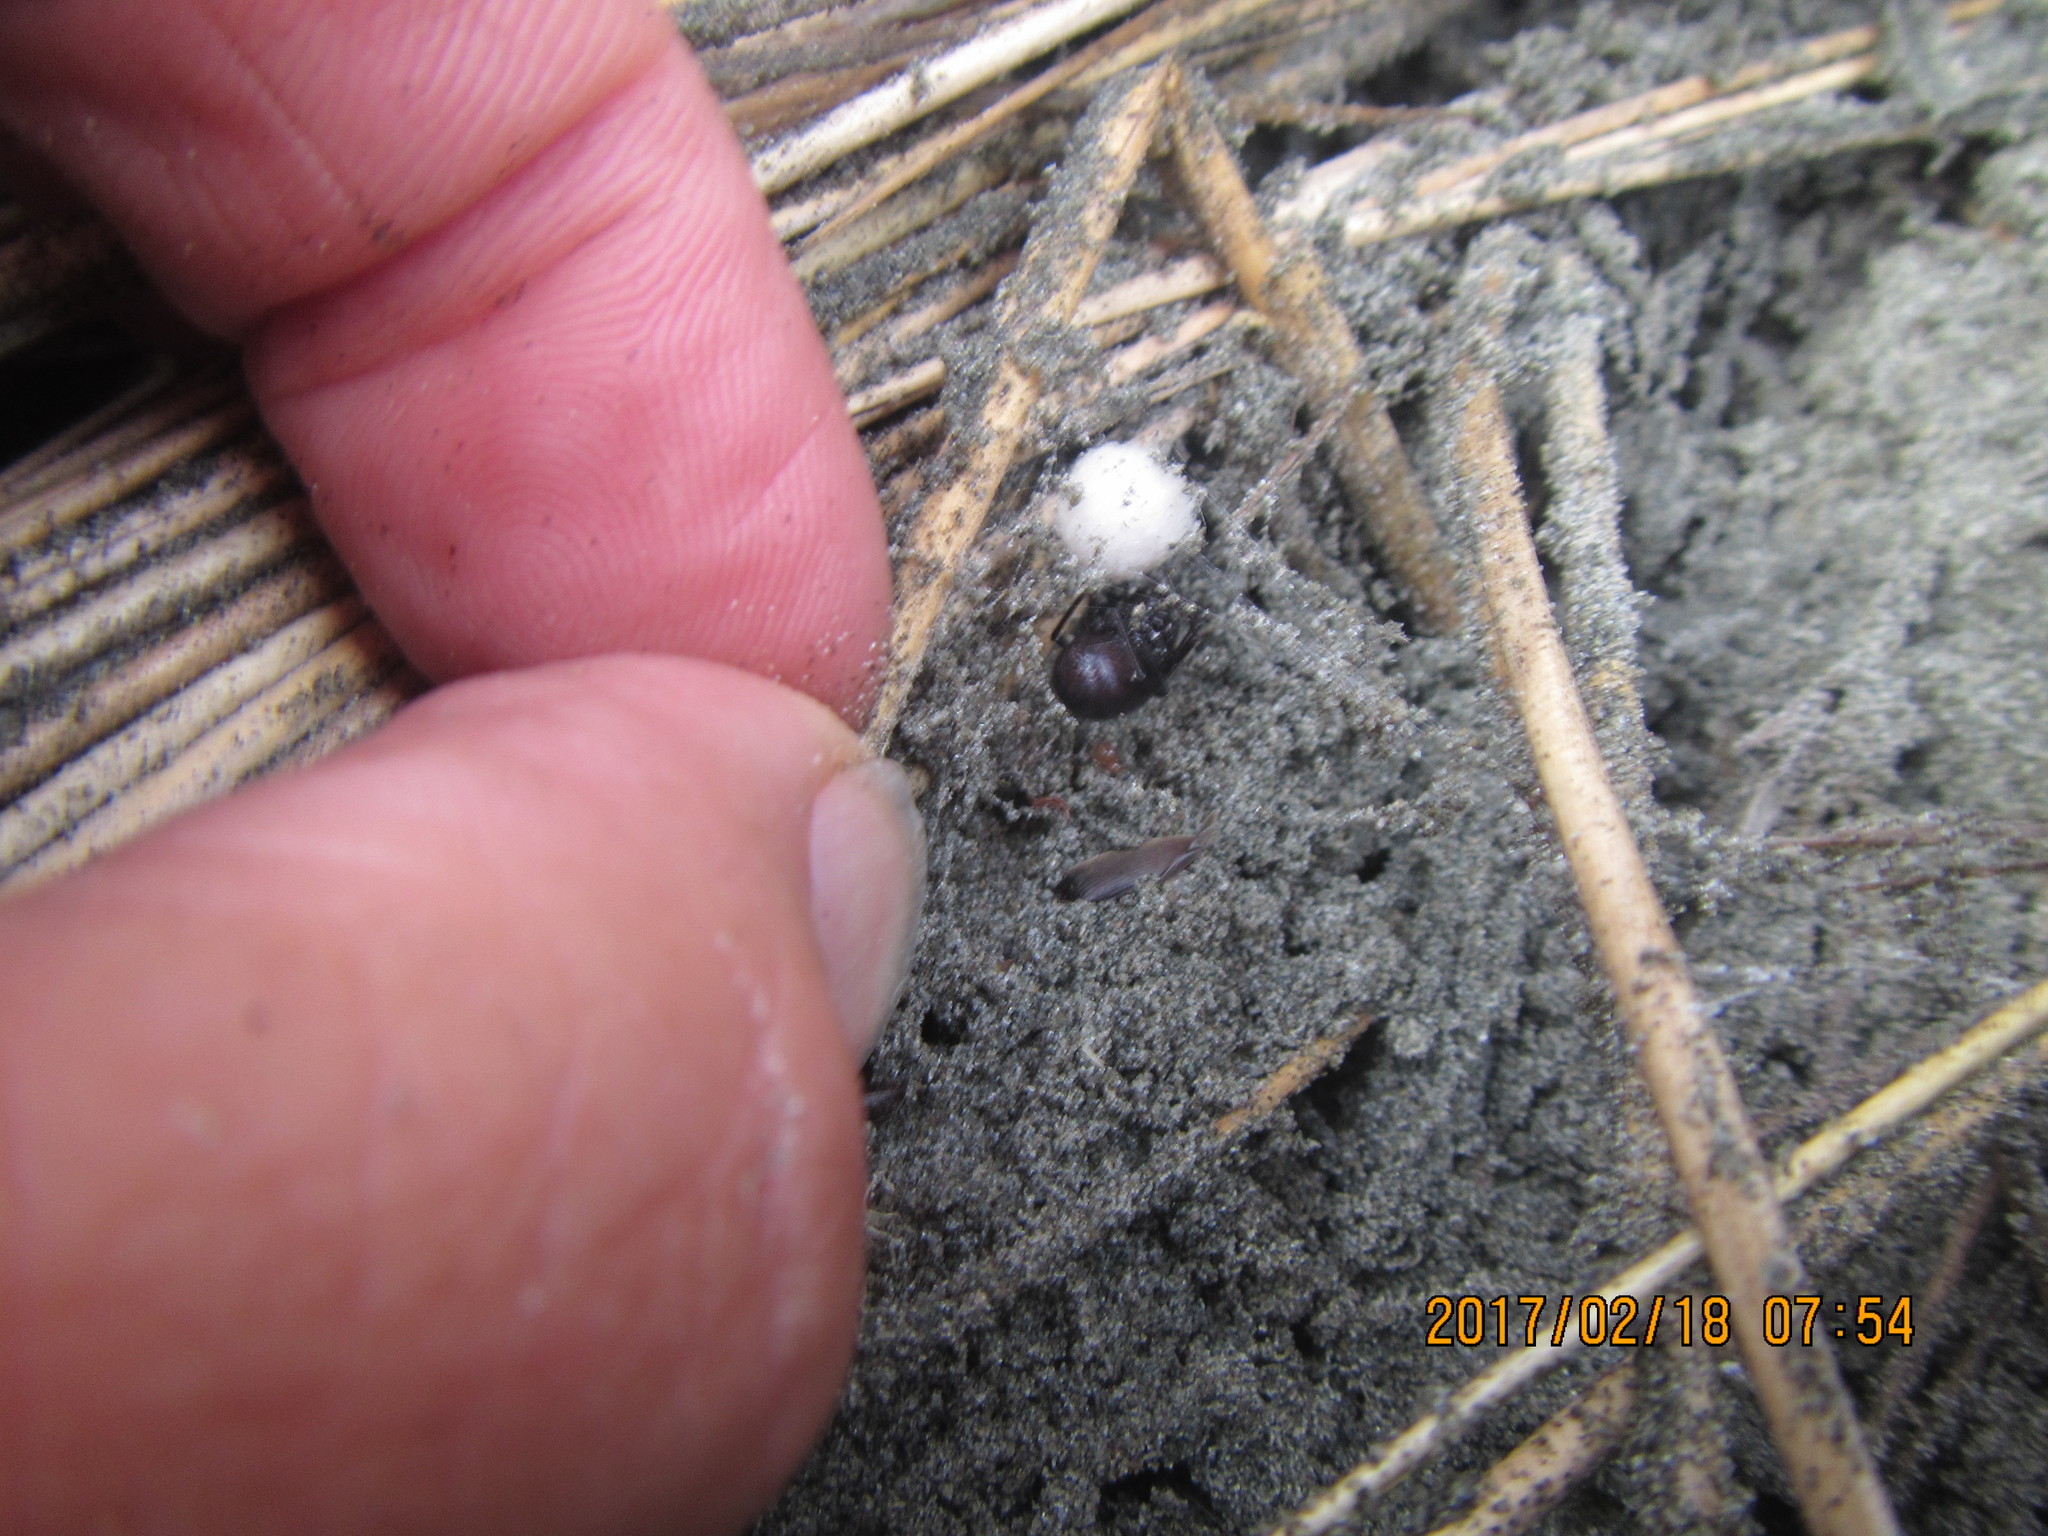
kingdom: Animalia
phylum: Arthropoda
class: Arachnida
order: Araneae
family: Theridiidae
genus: Steatoda
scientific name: Steatoda capensis
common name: Cobweb weaver
